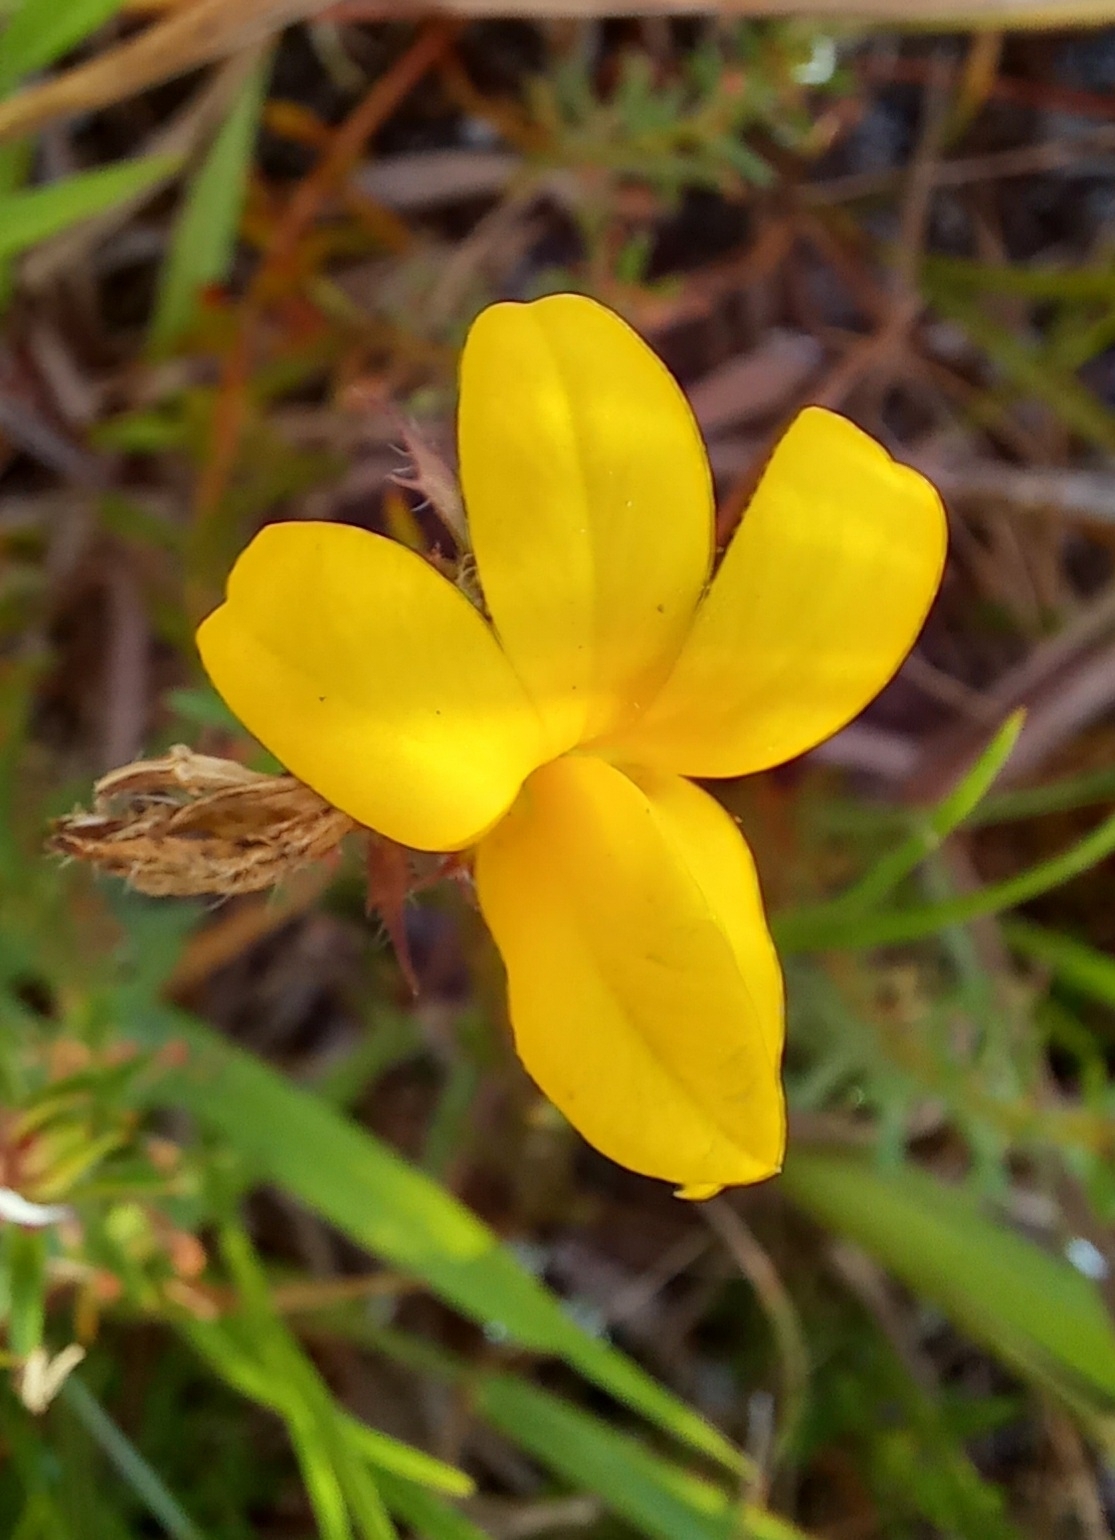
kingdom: Plantae
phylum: Tracheophyta
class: Magnoliopsida
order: Asterales
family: Campanulaceae
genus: Monopsis
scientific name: Monopsis lutea
